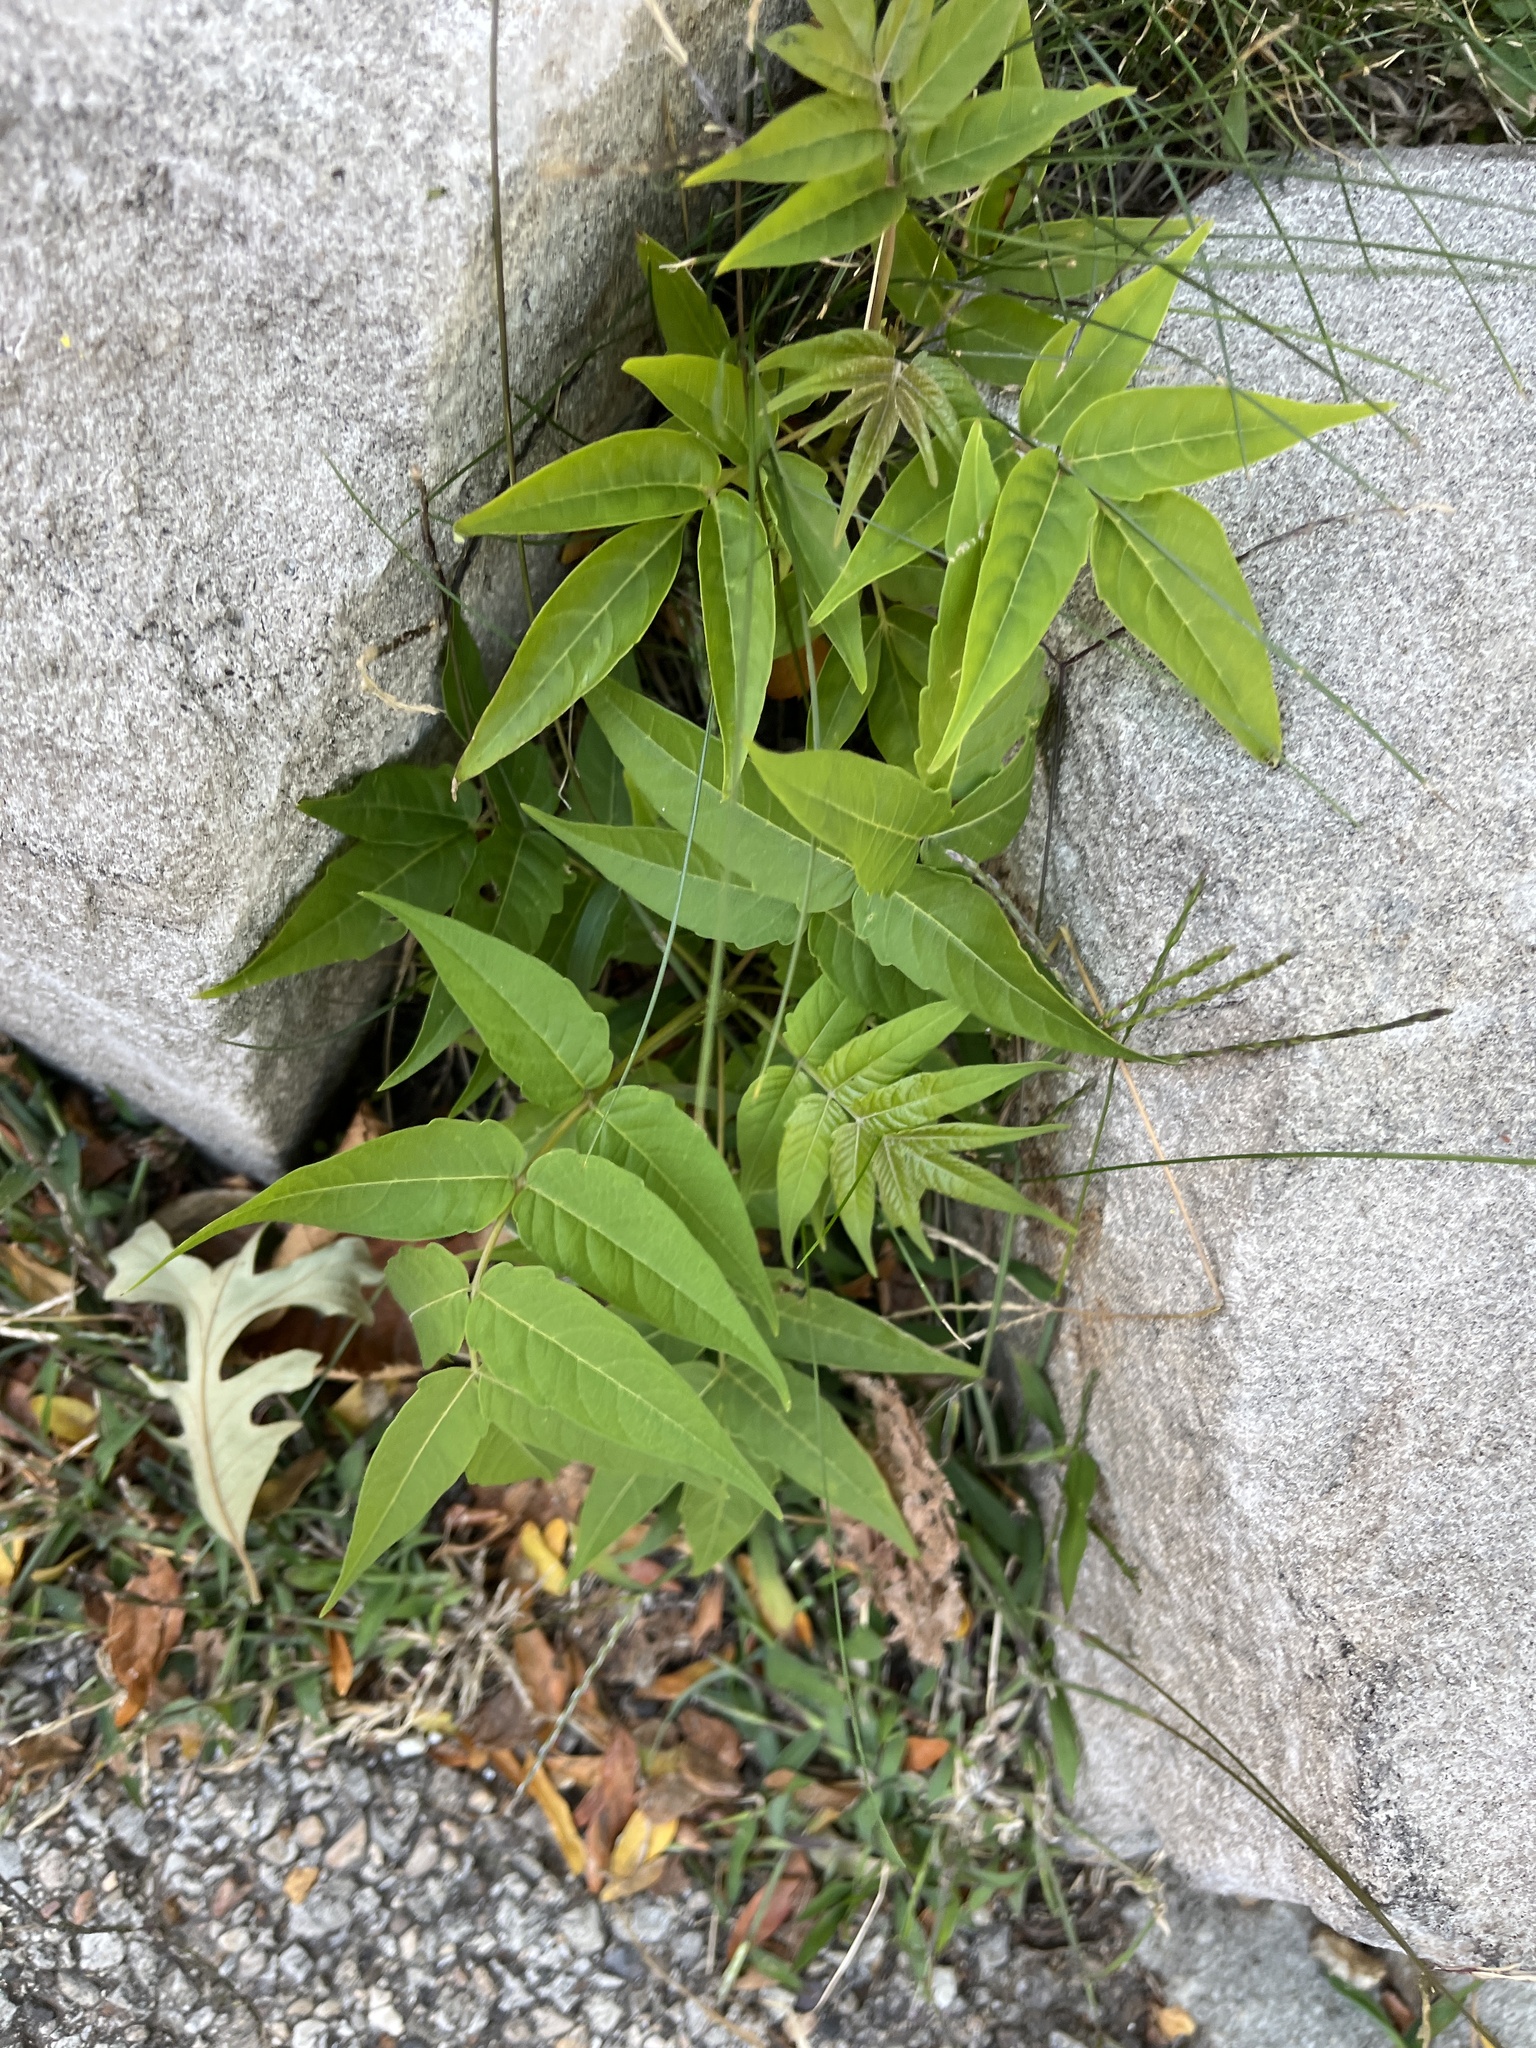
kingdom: Plantae
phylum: Tracheophyta
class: Magnoliopsida
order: Sapindales
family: Simaroubaceae
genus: Ailanthus
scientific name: Ailanthus altissima
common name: Tree-of-heaven
